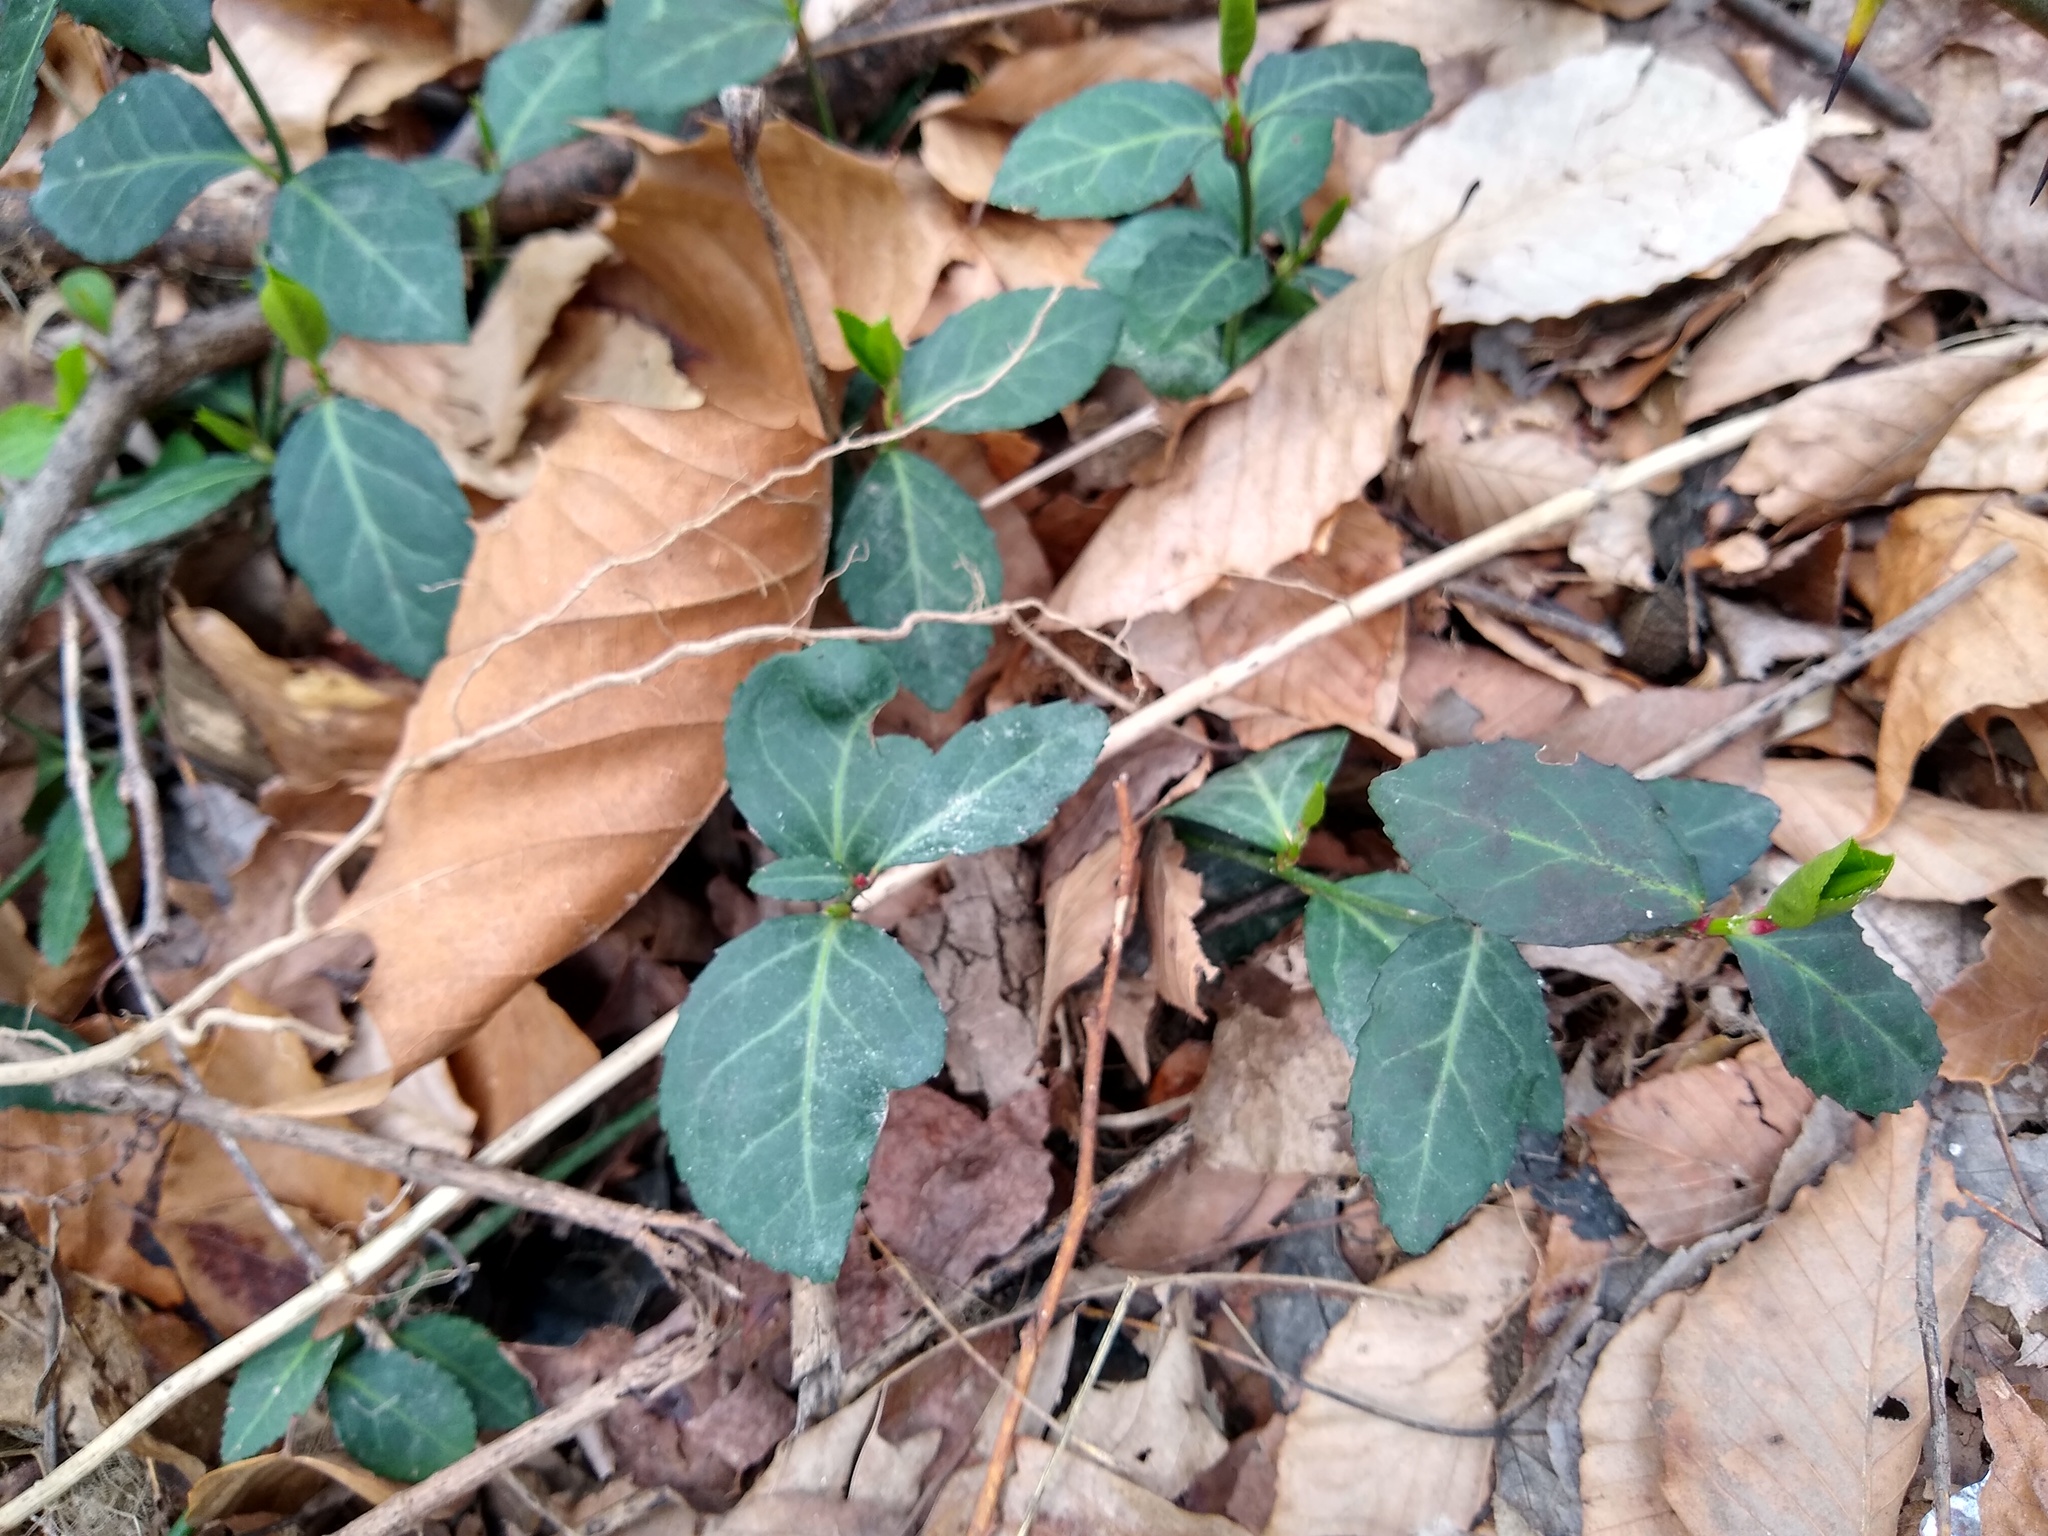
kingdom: Plantae
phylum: Tracheophyta
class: Magnoliopsida
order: Celastrales
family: Celastraceae
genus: Euonymus
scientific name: Euonymus fortunei
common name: Climbing euonymus
